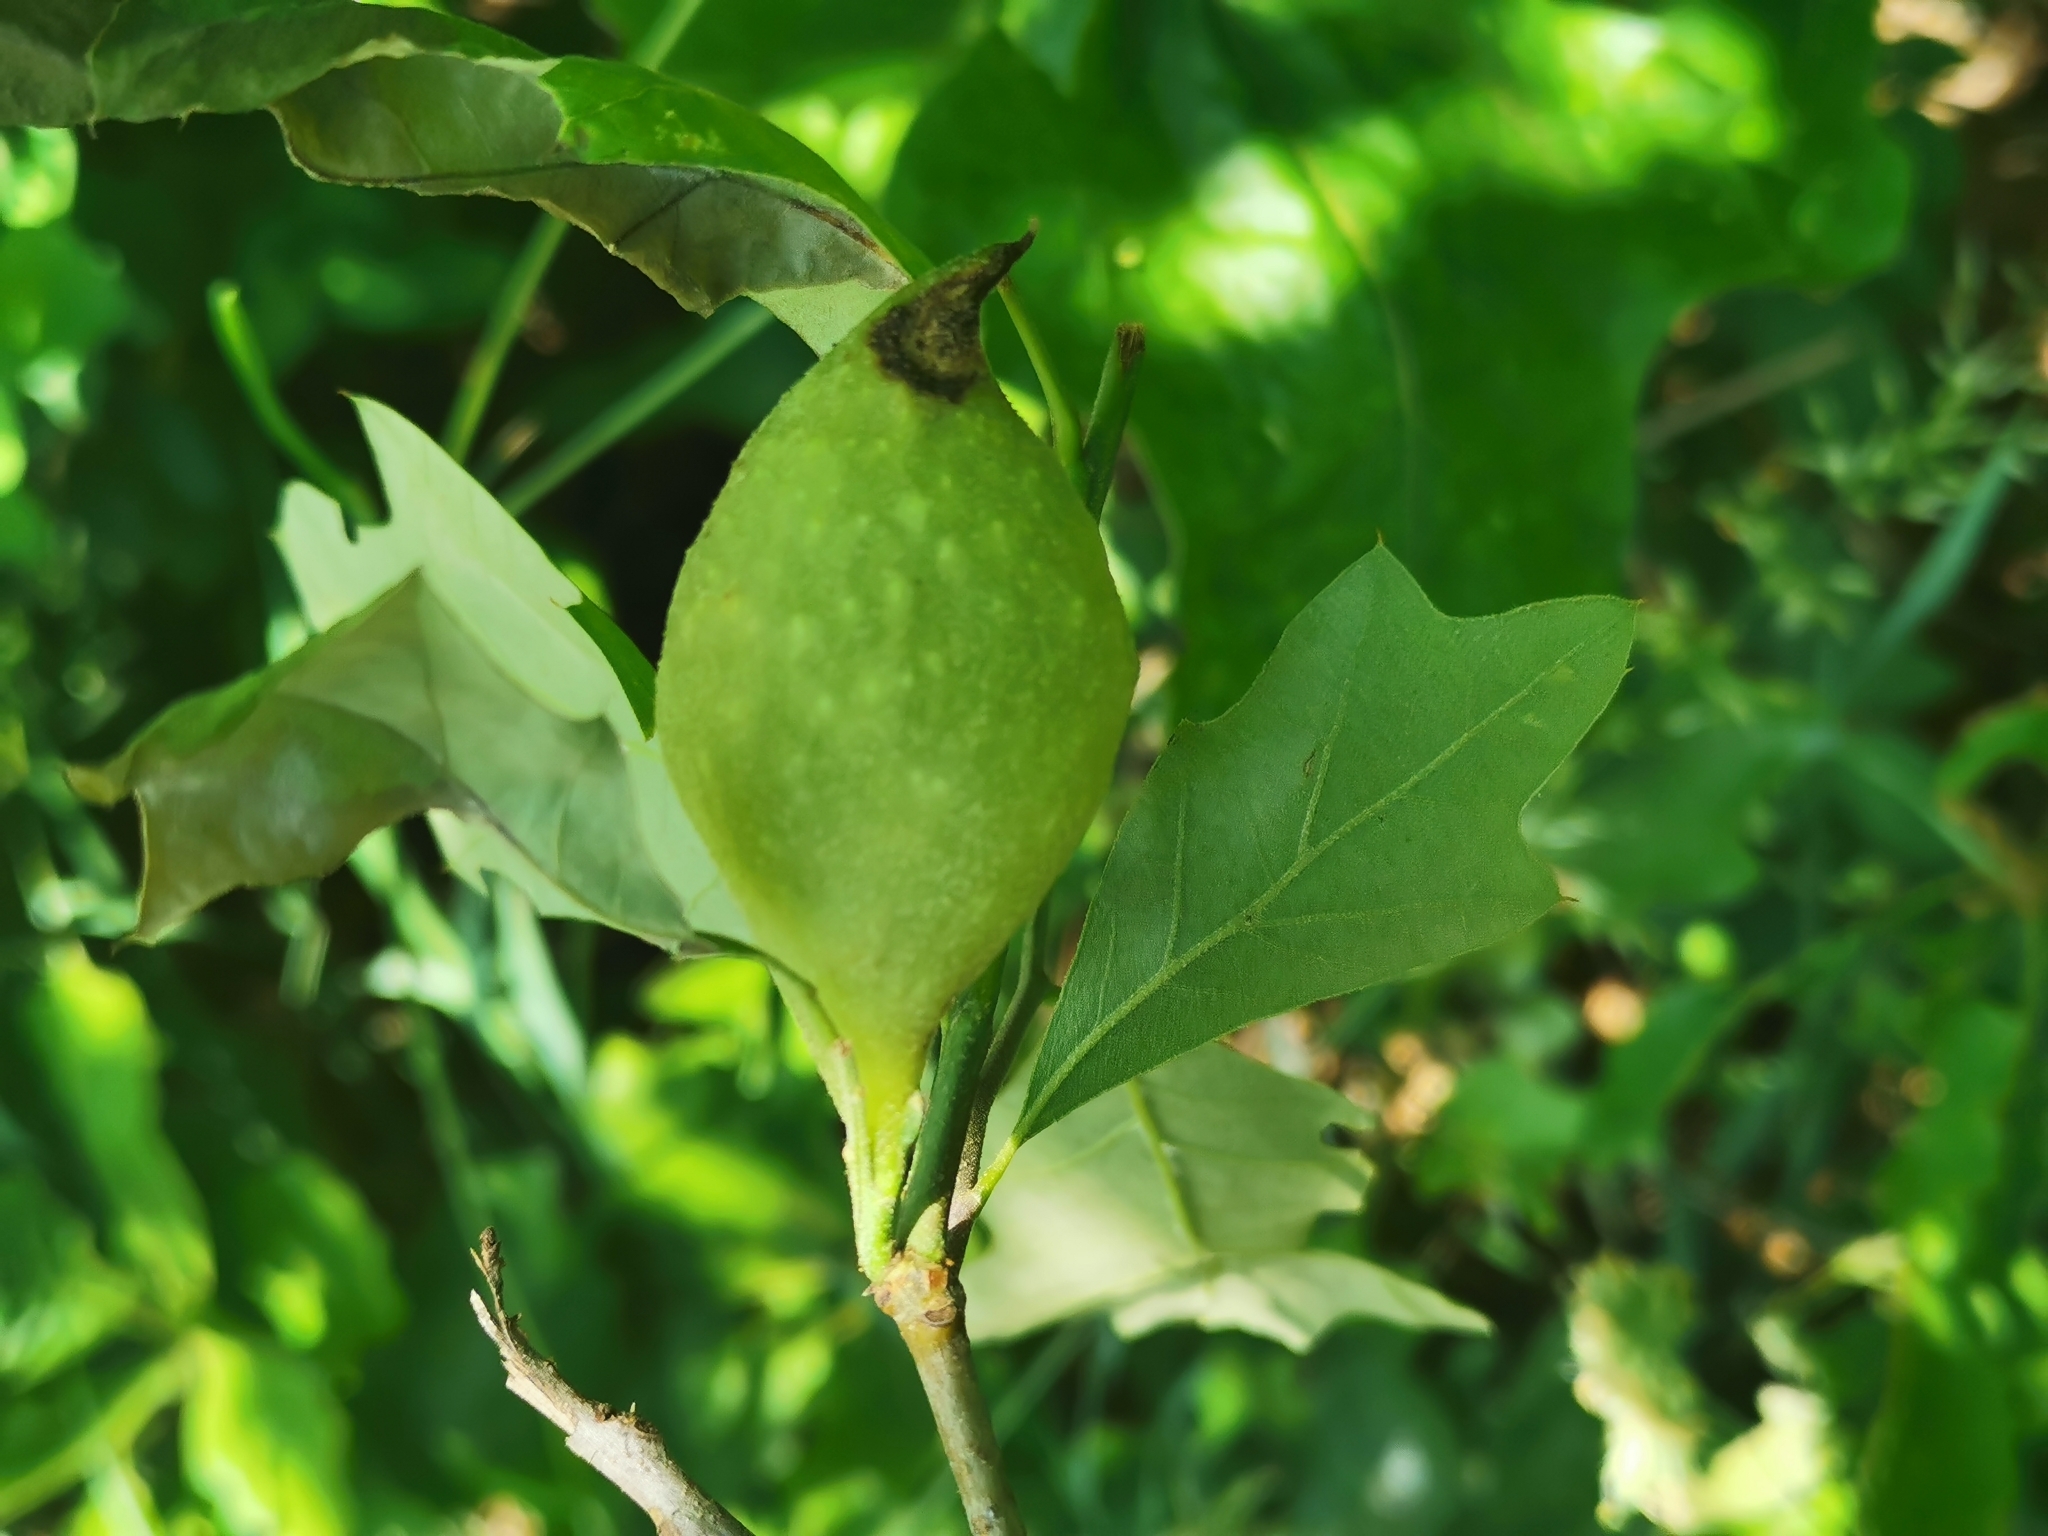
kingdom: Animalia
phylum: Arthropoda
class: Insecta
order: Hymenoptera
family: Cynipidae
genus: Amphibolips
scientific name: Amphibolips
